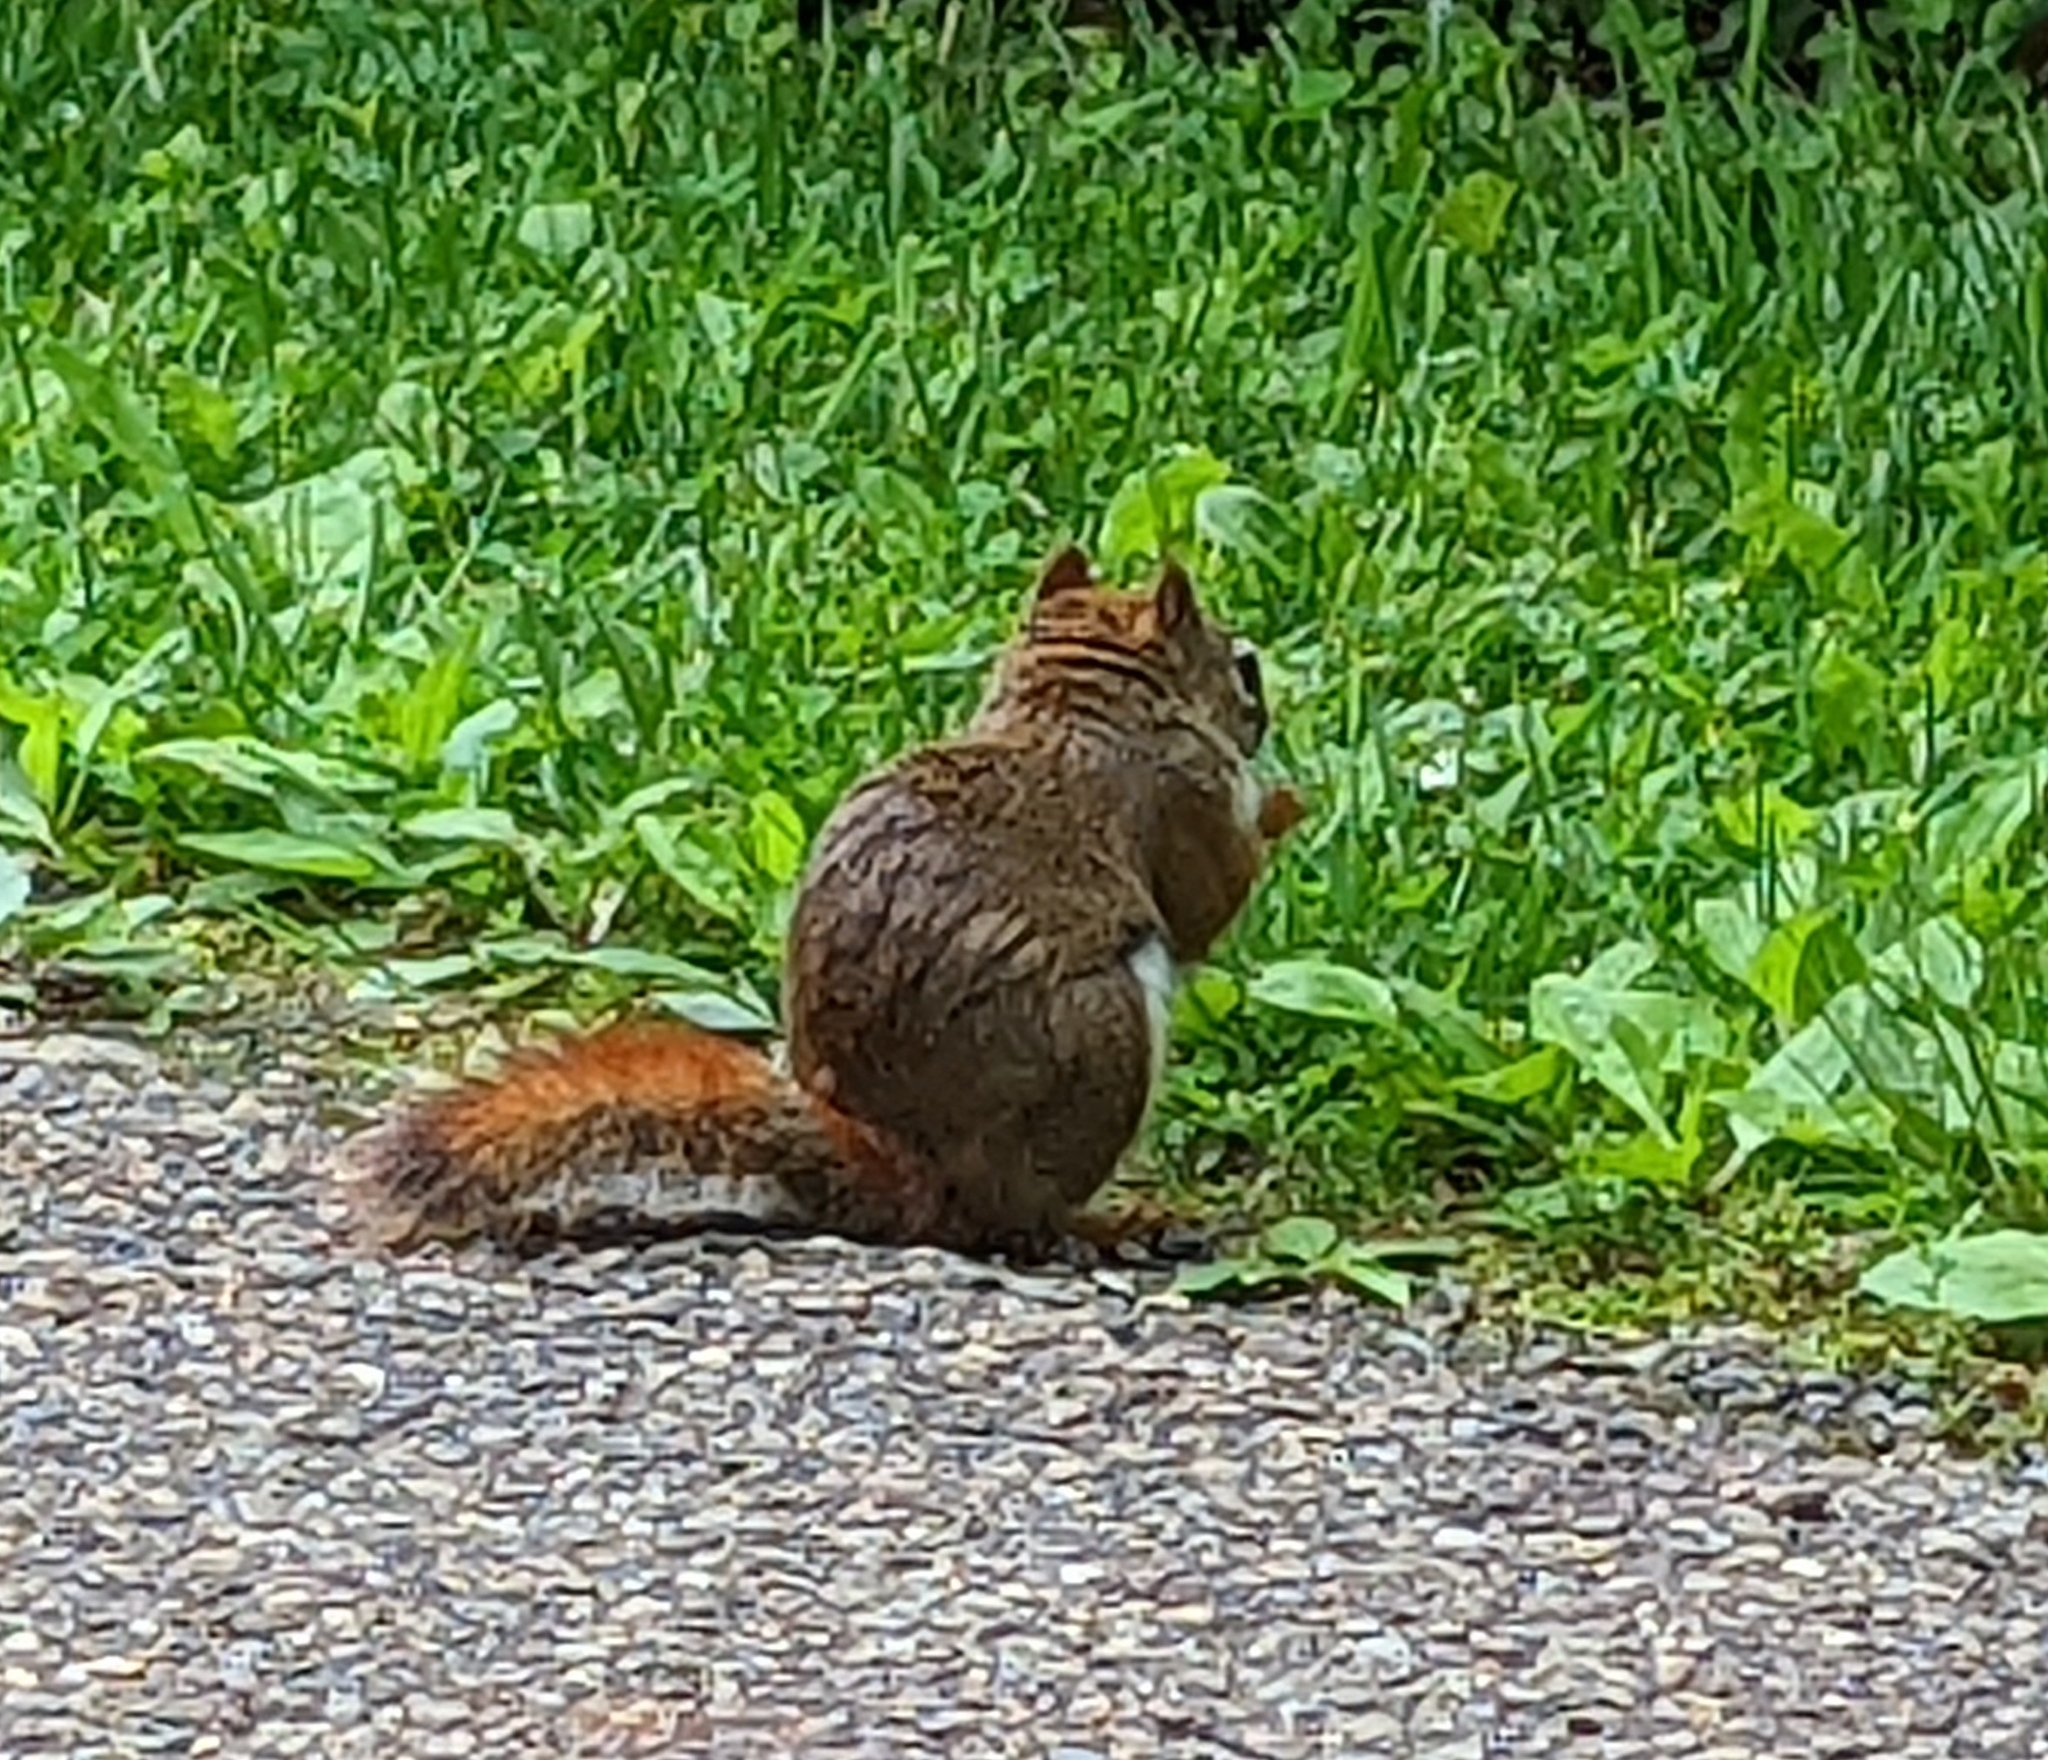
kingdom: Animalia
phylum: Chordata
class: Mammalia
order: Rodentia
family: Sciuridae
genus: Tamiasciurus
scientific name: Tamiasciurus hudsonicus
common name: Red squirrel
